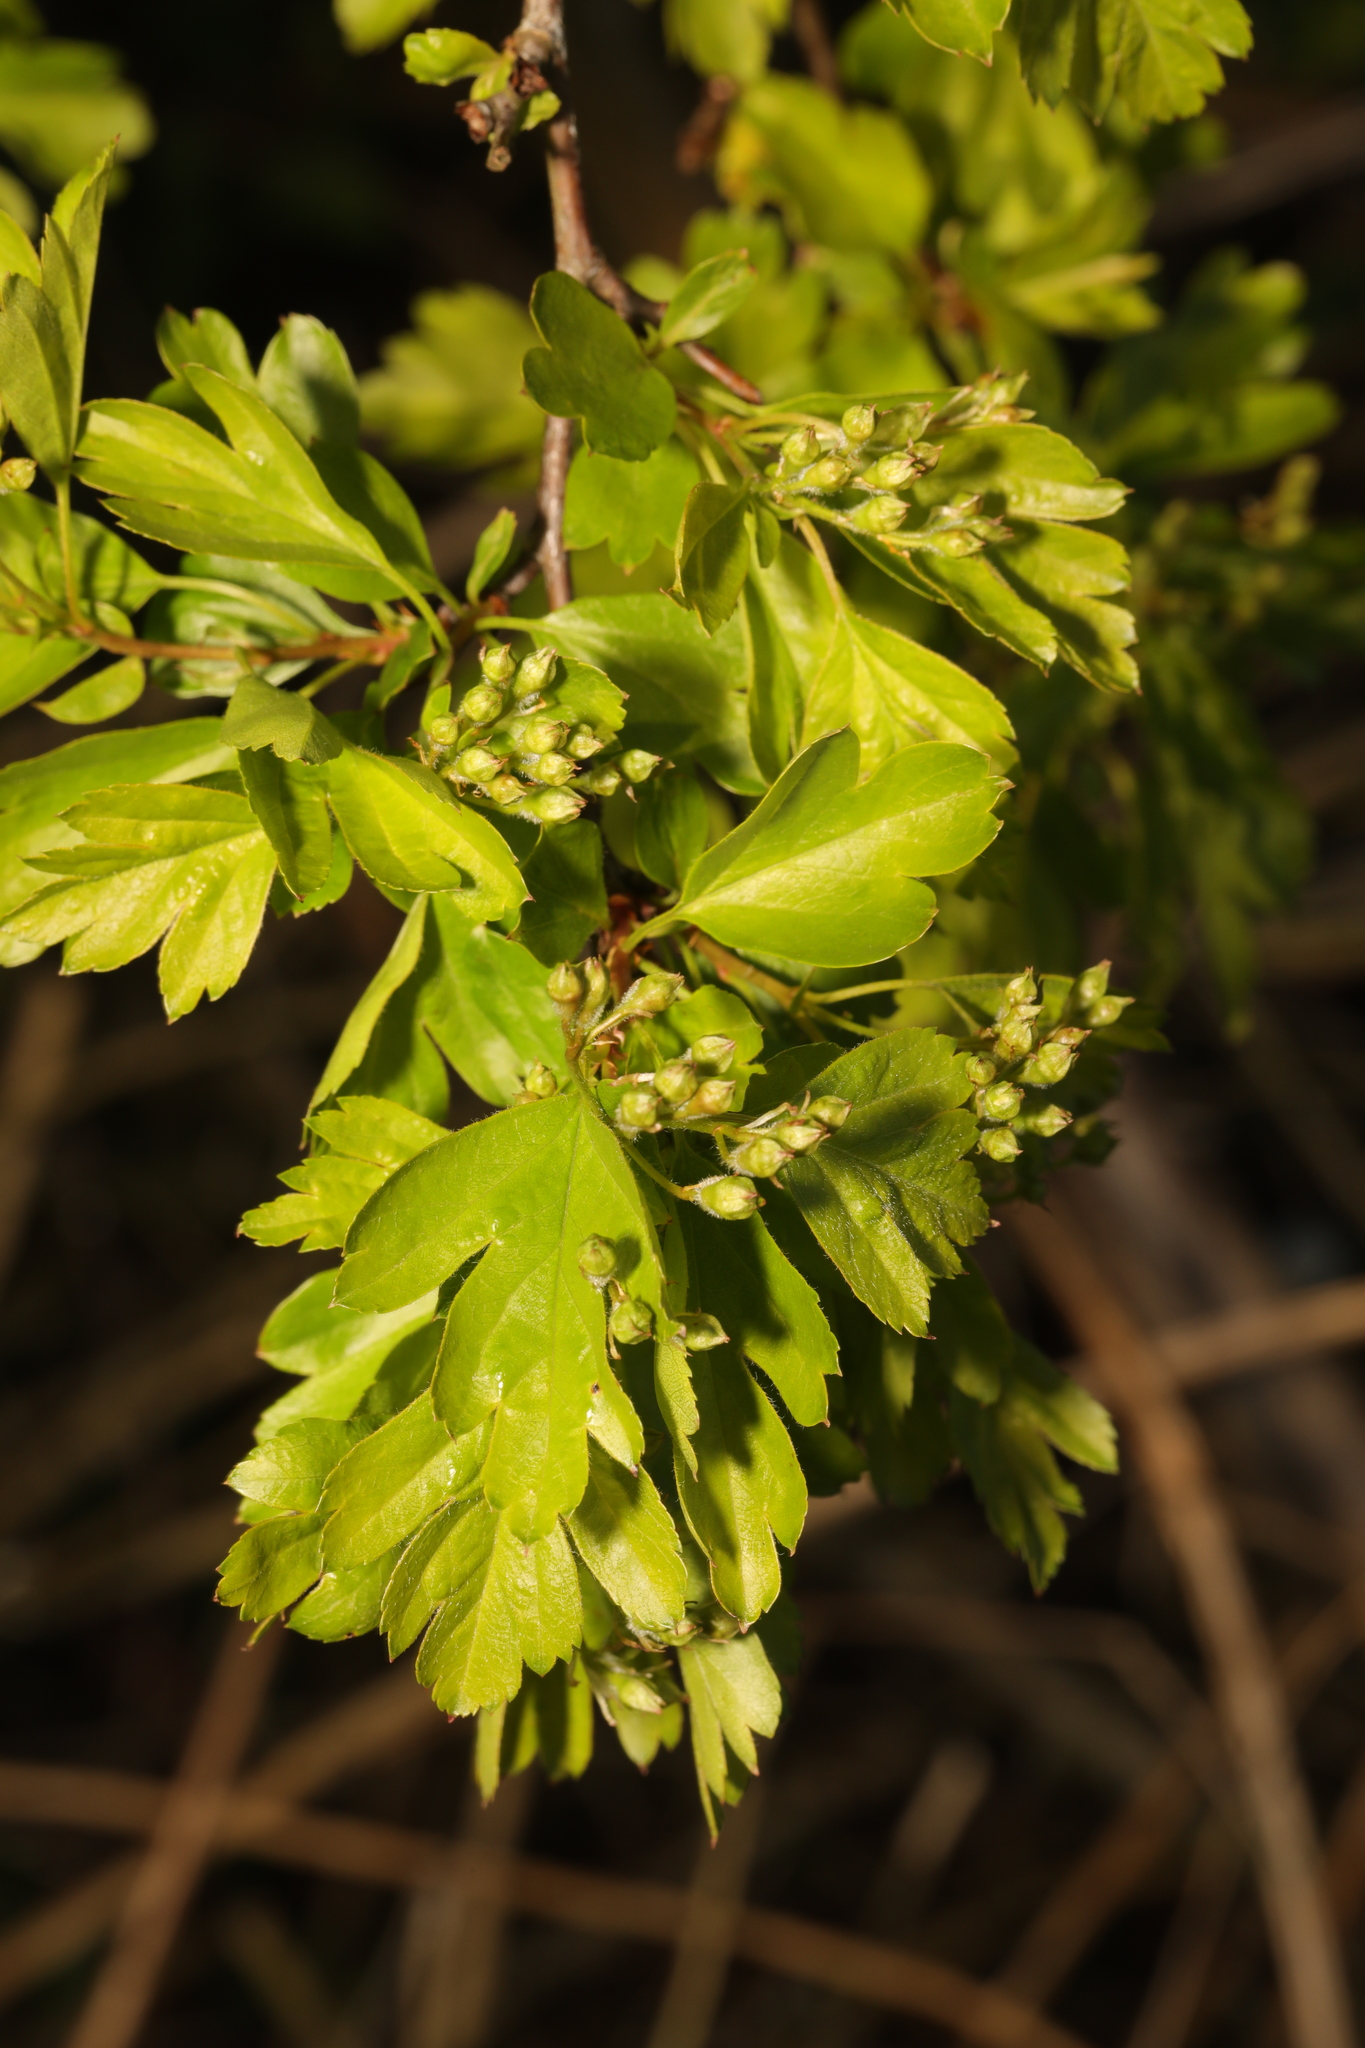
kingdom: Plantae
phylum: Tracheophyta
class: Magnoliopsida
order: Rosales
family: Rosaceae
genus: Crataegus
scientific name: Crataegus monogyna
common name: Hawthorn
